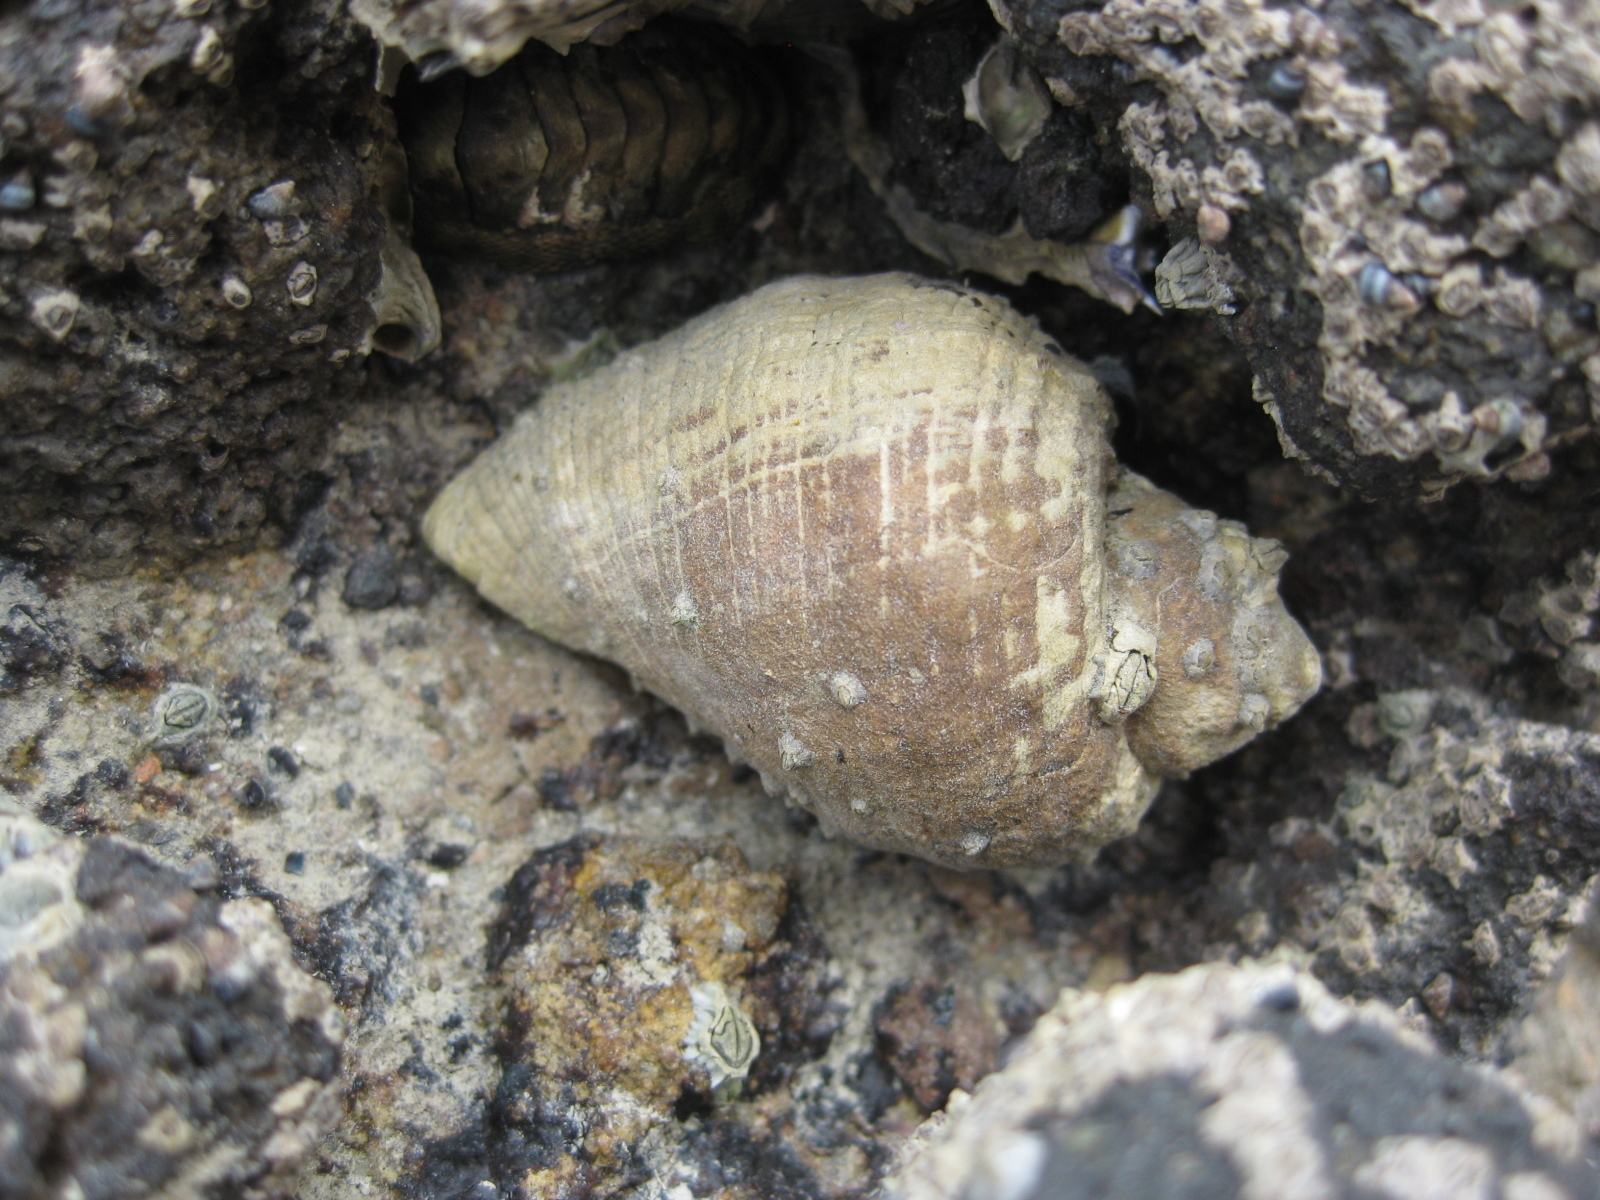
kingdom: Animalia
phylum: Mollusca
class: Gastropoda
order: Neogastropoda
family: Muricidae
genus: Haustrum
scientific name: Haustrum haustorium
